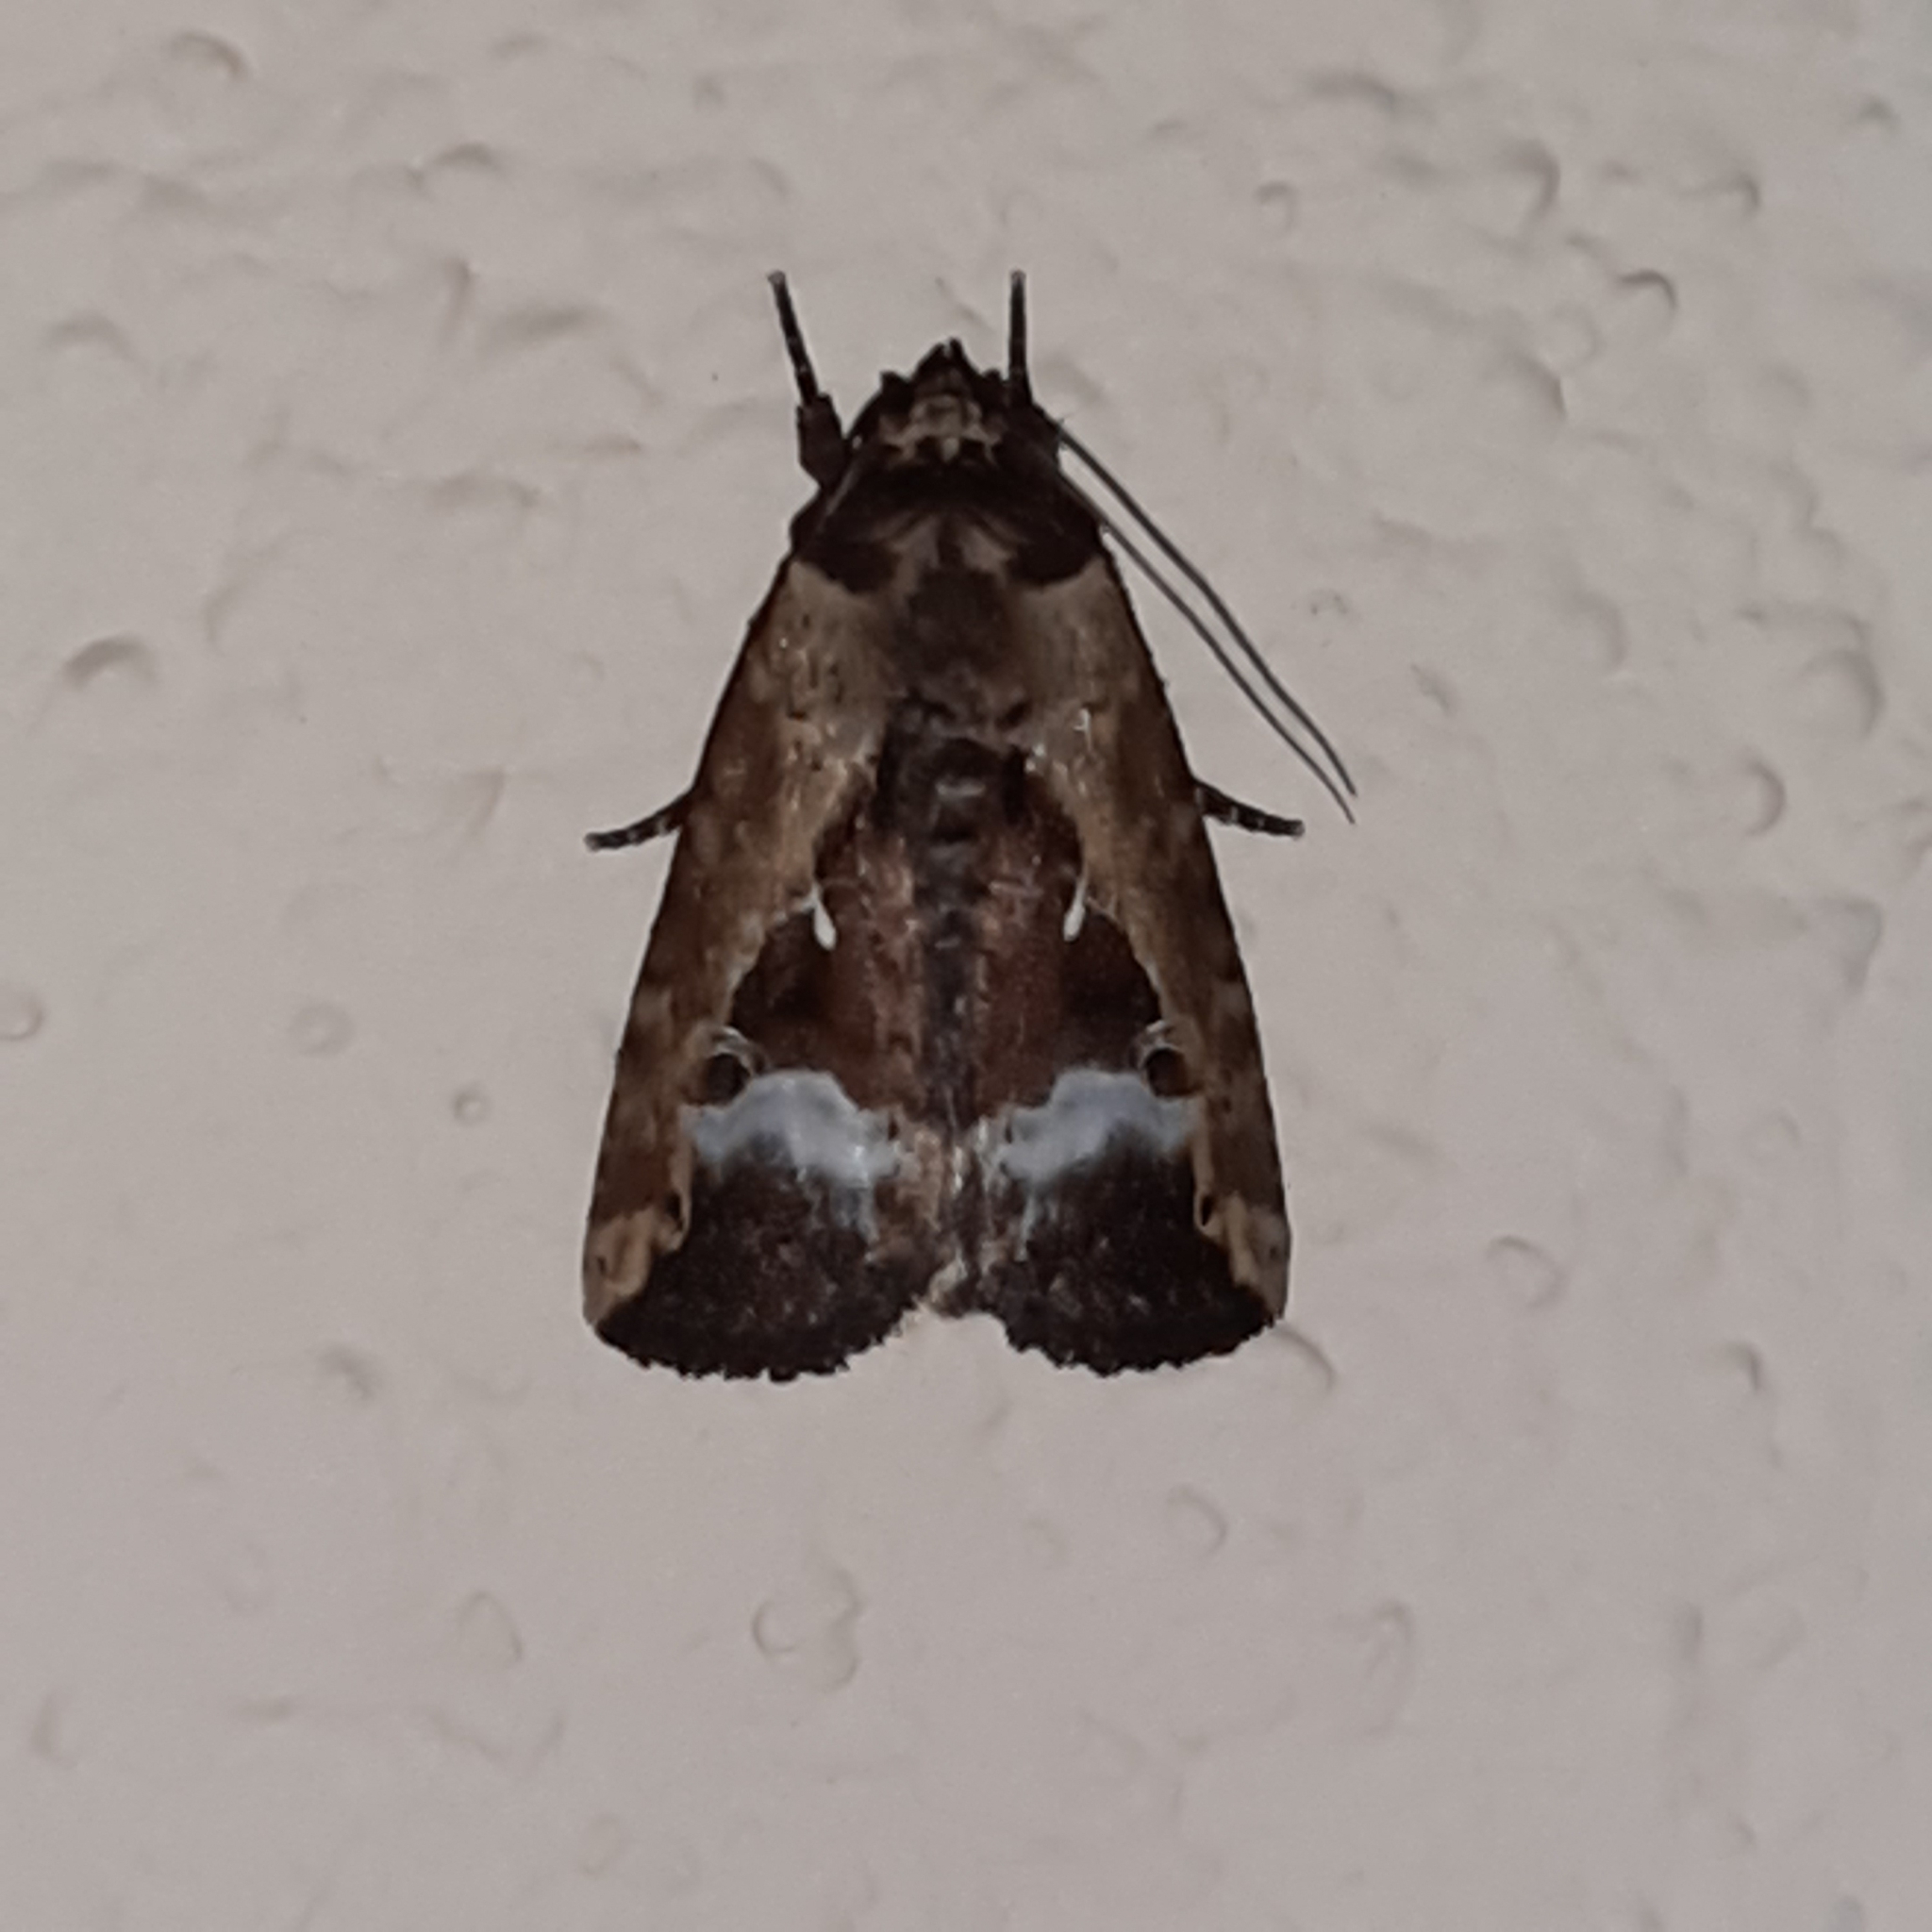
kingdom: Animalia
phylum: Arthropoda
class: Insecta
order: Lepidoptera
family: Noctuidae
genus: Elaphria
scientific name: Elaphria subobliqua
